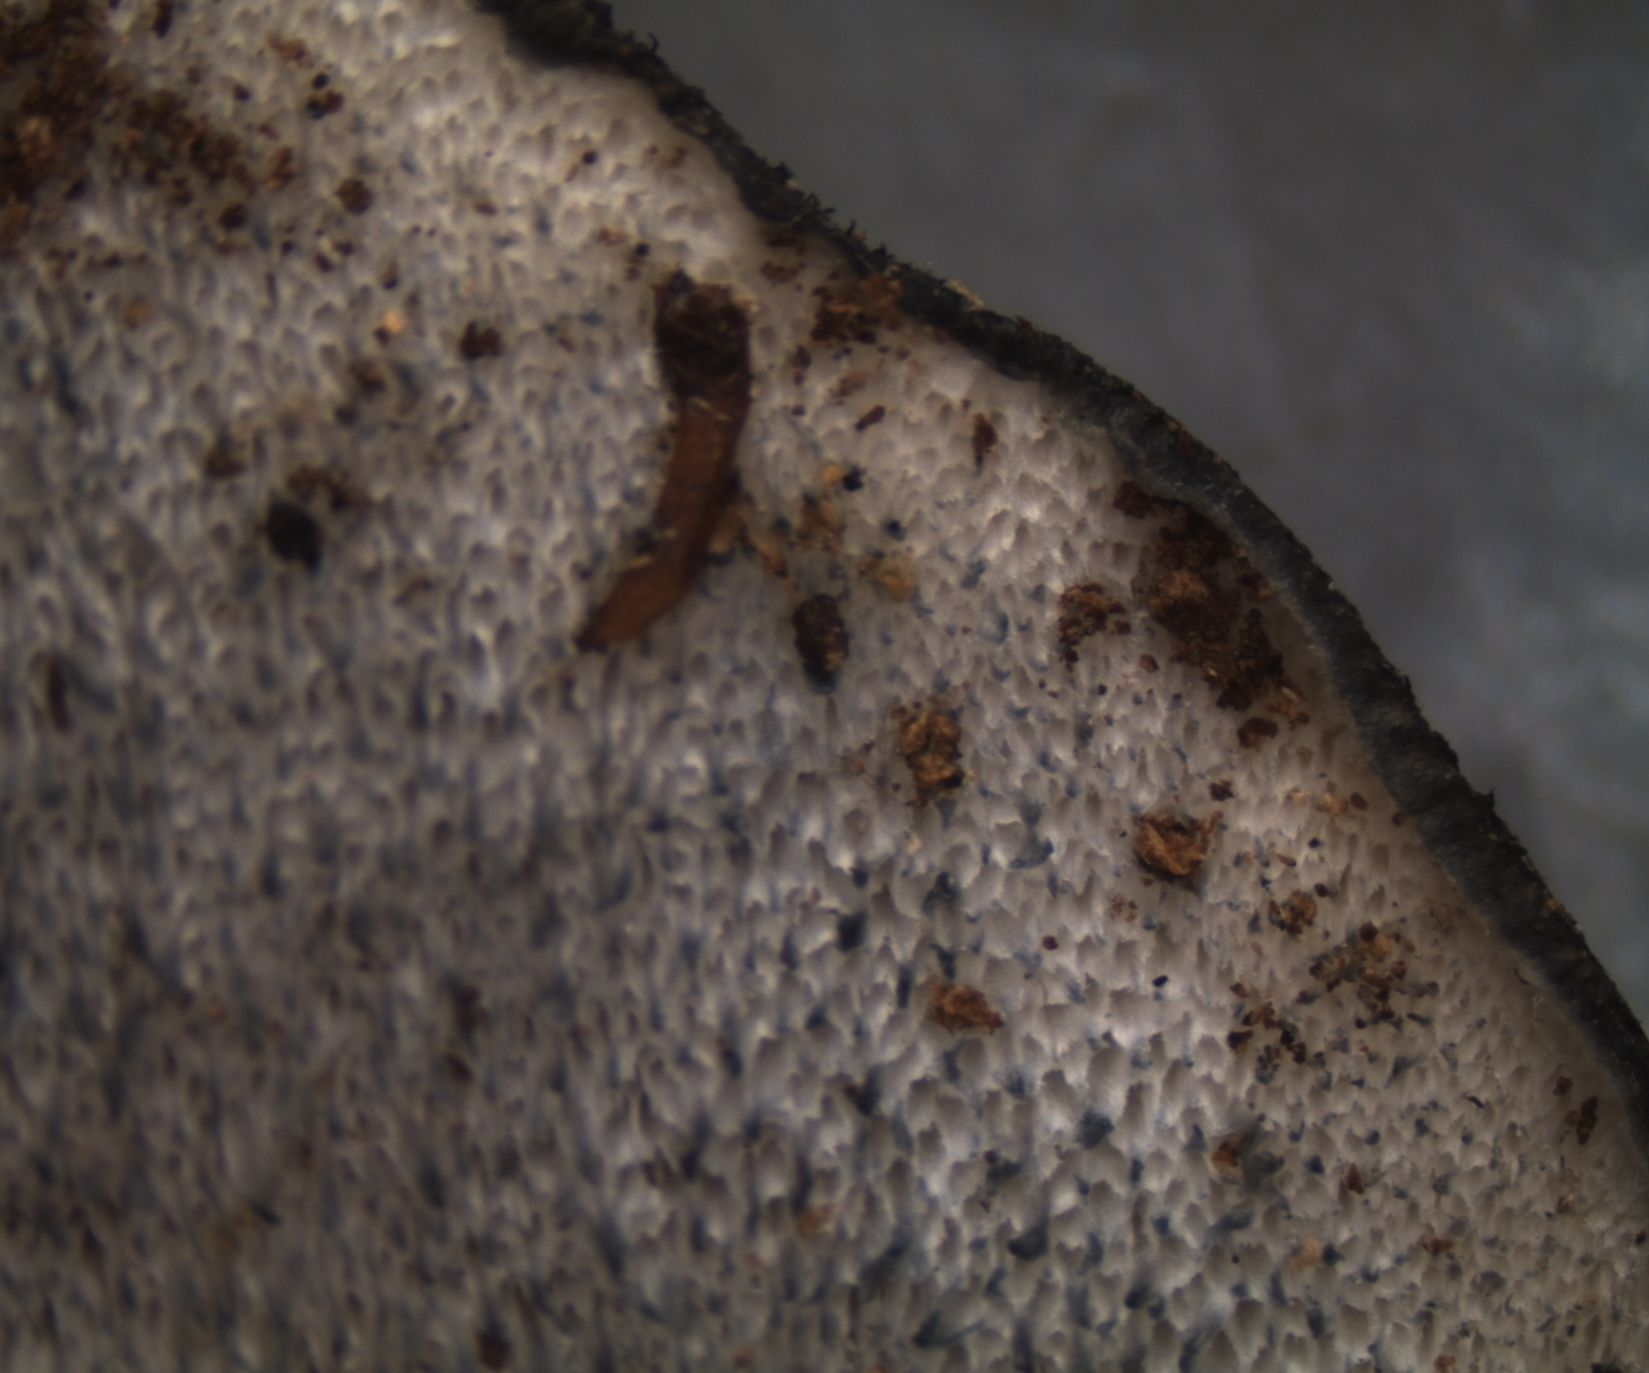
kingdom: Fungi
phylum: Basidiomycota
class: Agaricomycetes
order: Polyporales
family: Incrustoporiaceae
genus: Tyromyces
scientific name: Tyromyces atrostrigosus
